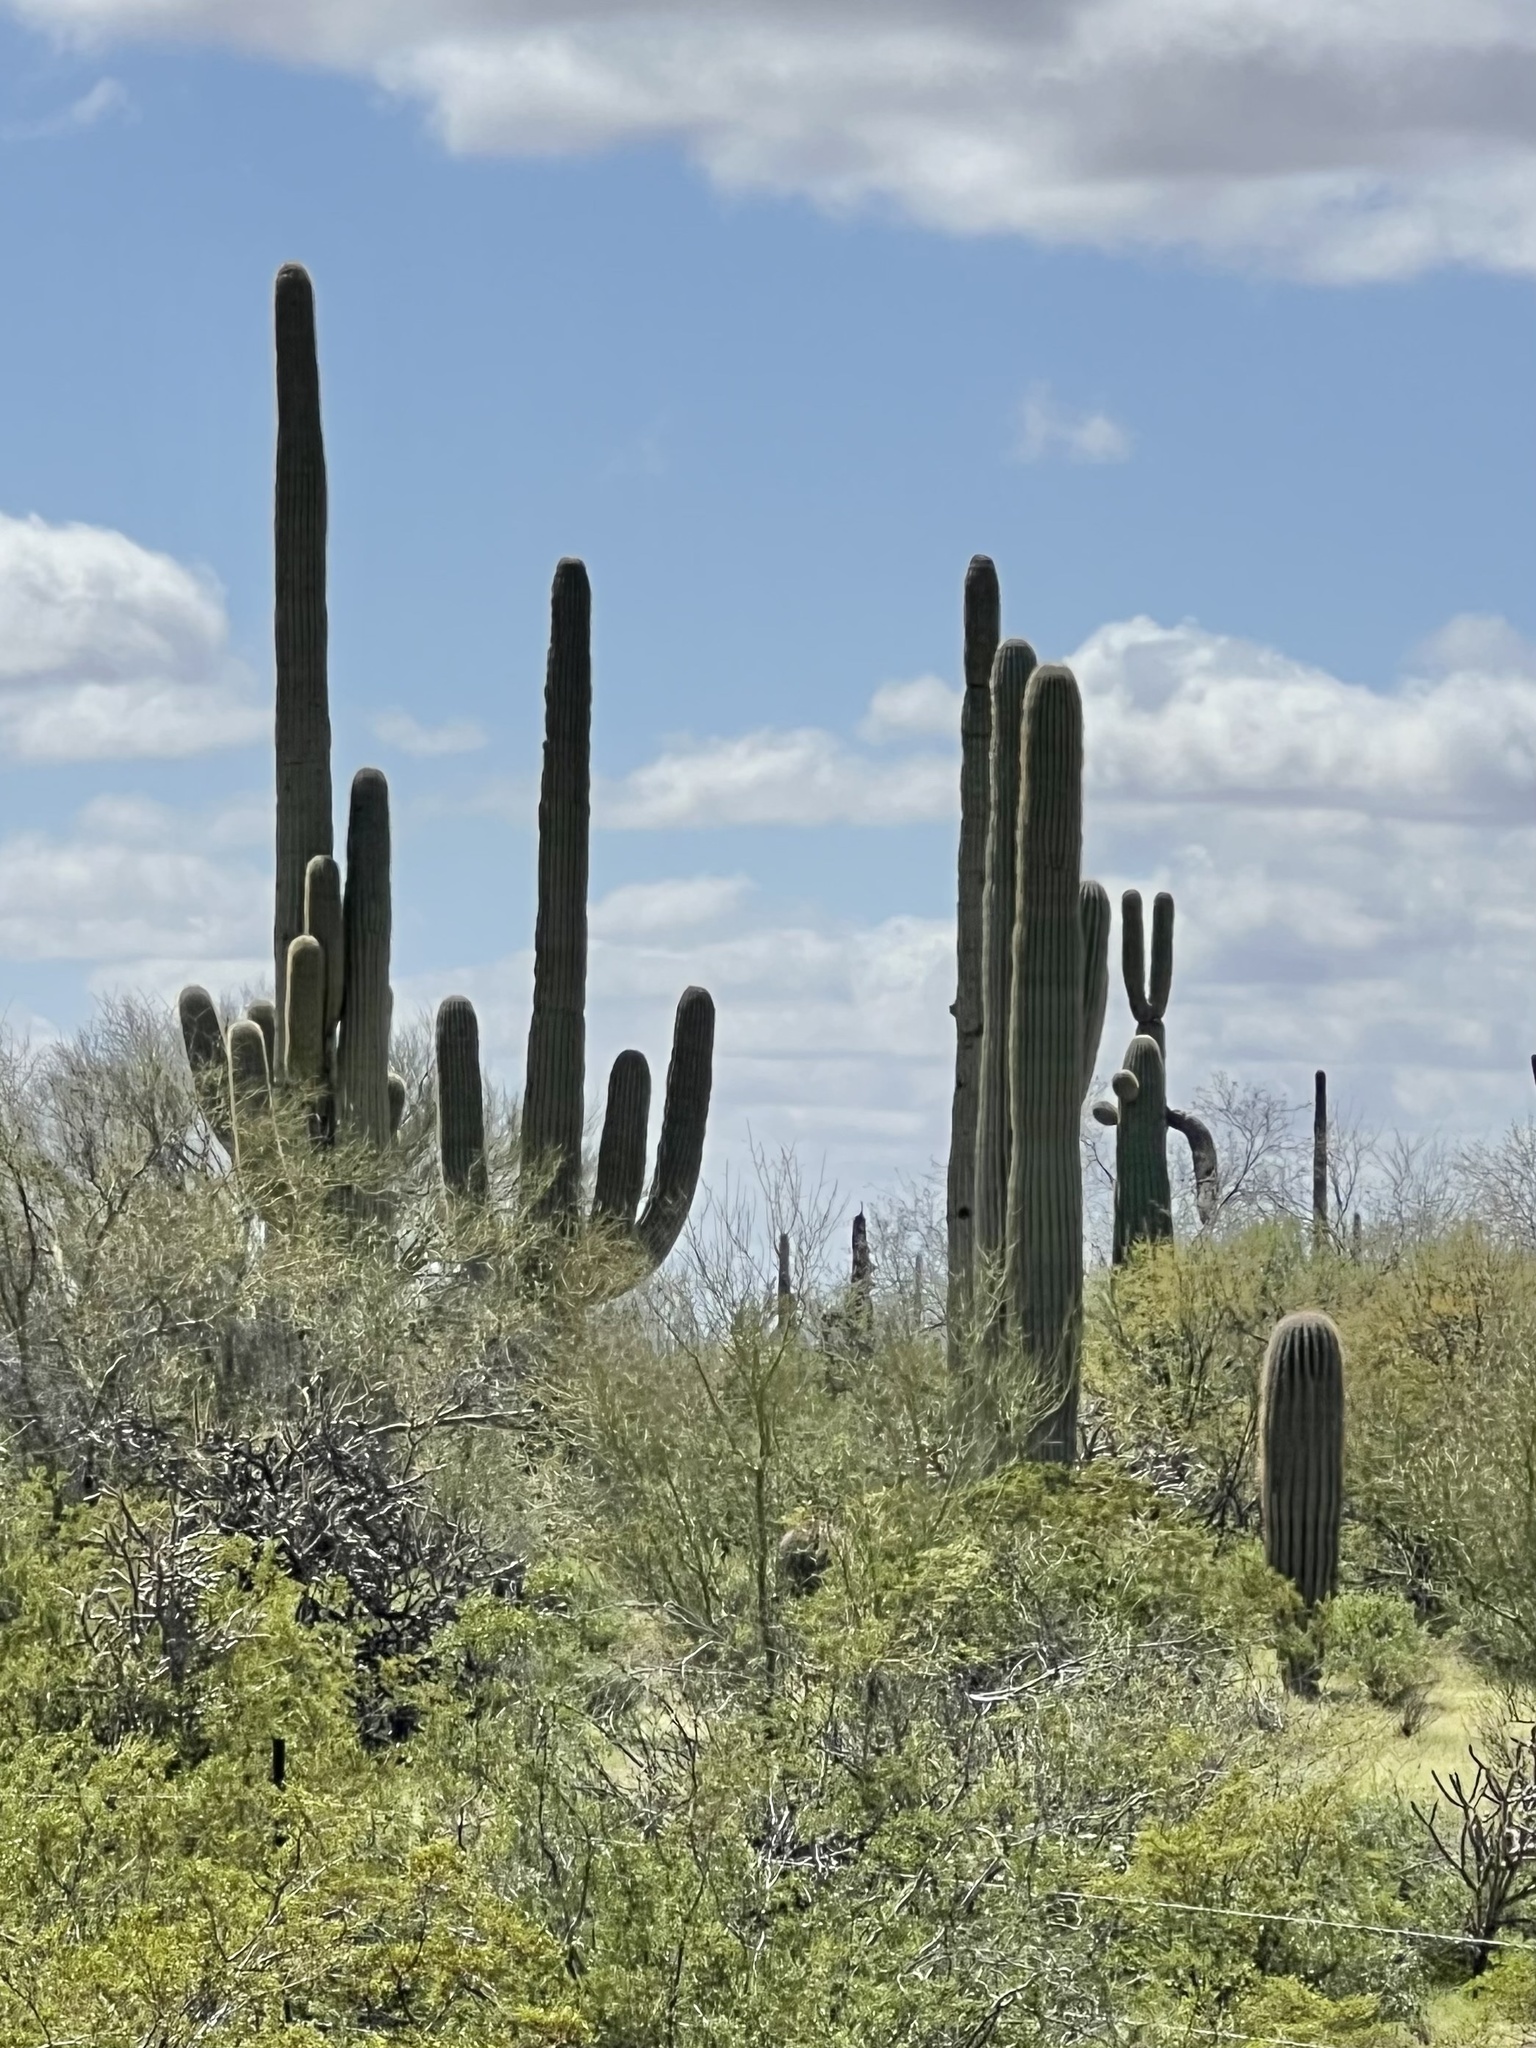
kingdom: Plantae
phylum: Tracheophyta
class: Magnoliopsida
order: Caryophyllales
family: Cactaceae
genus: Carnegiea
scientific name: Carnegiea gigantea
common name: Saguaro
